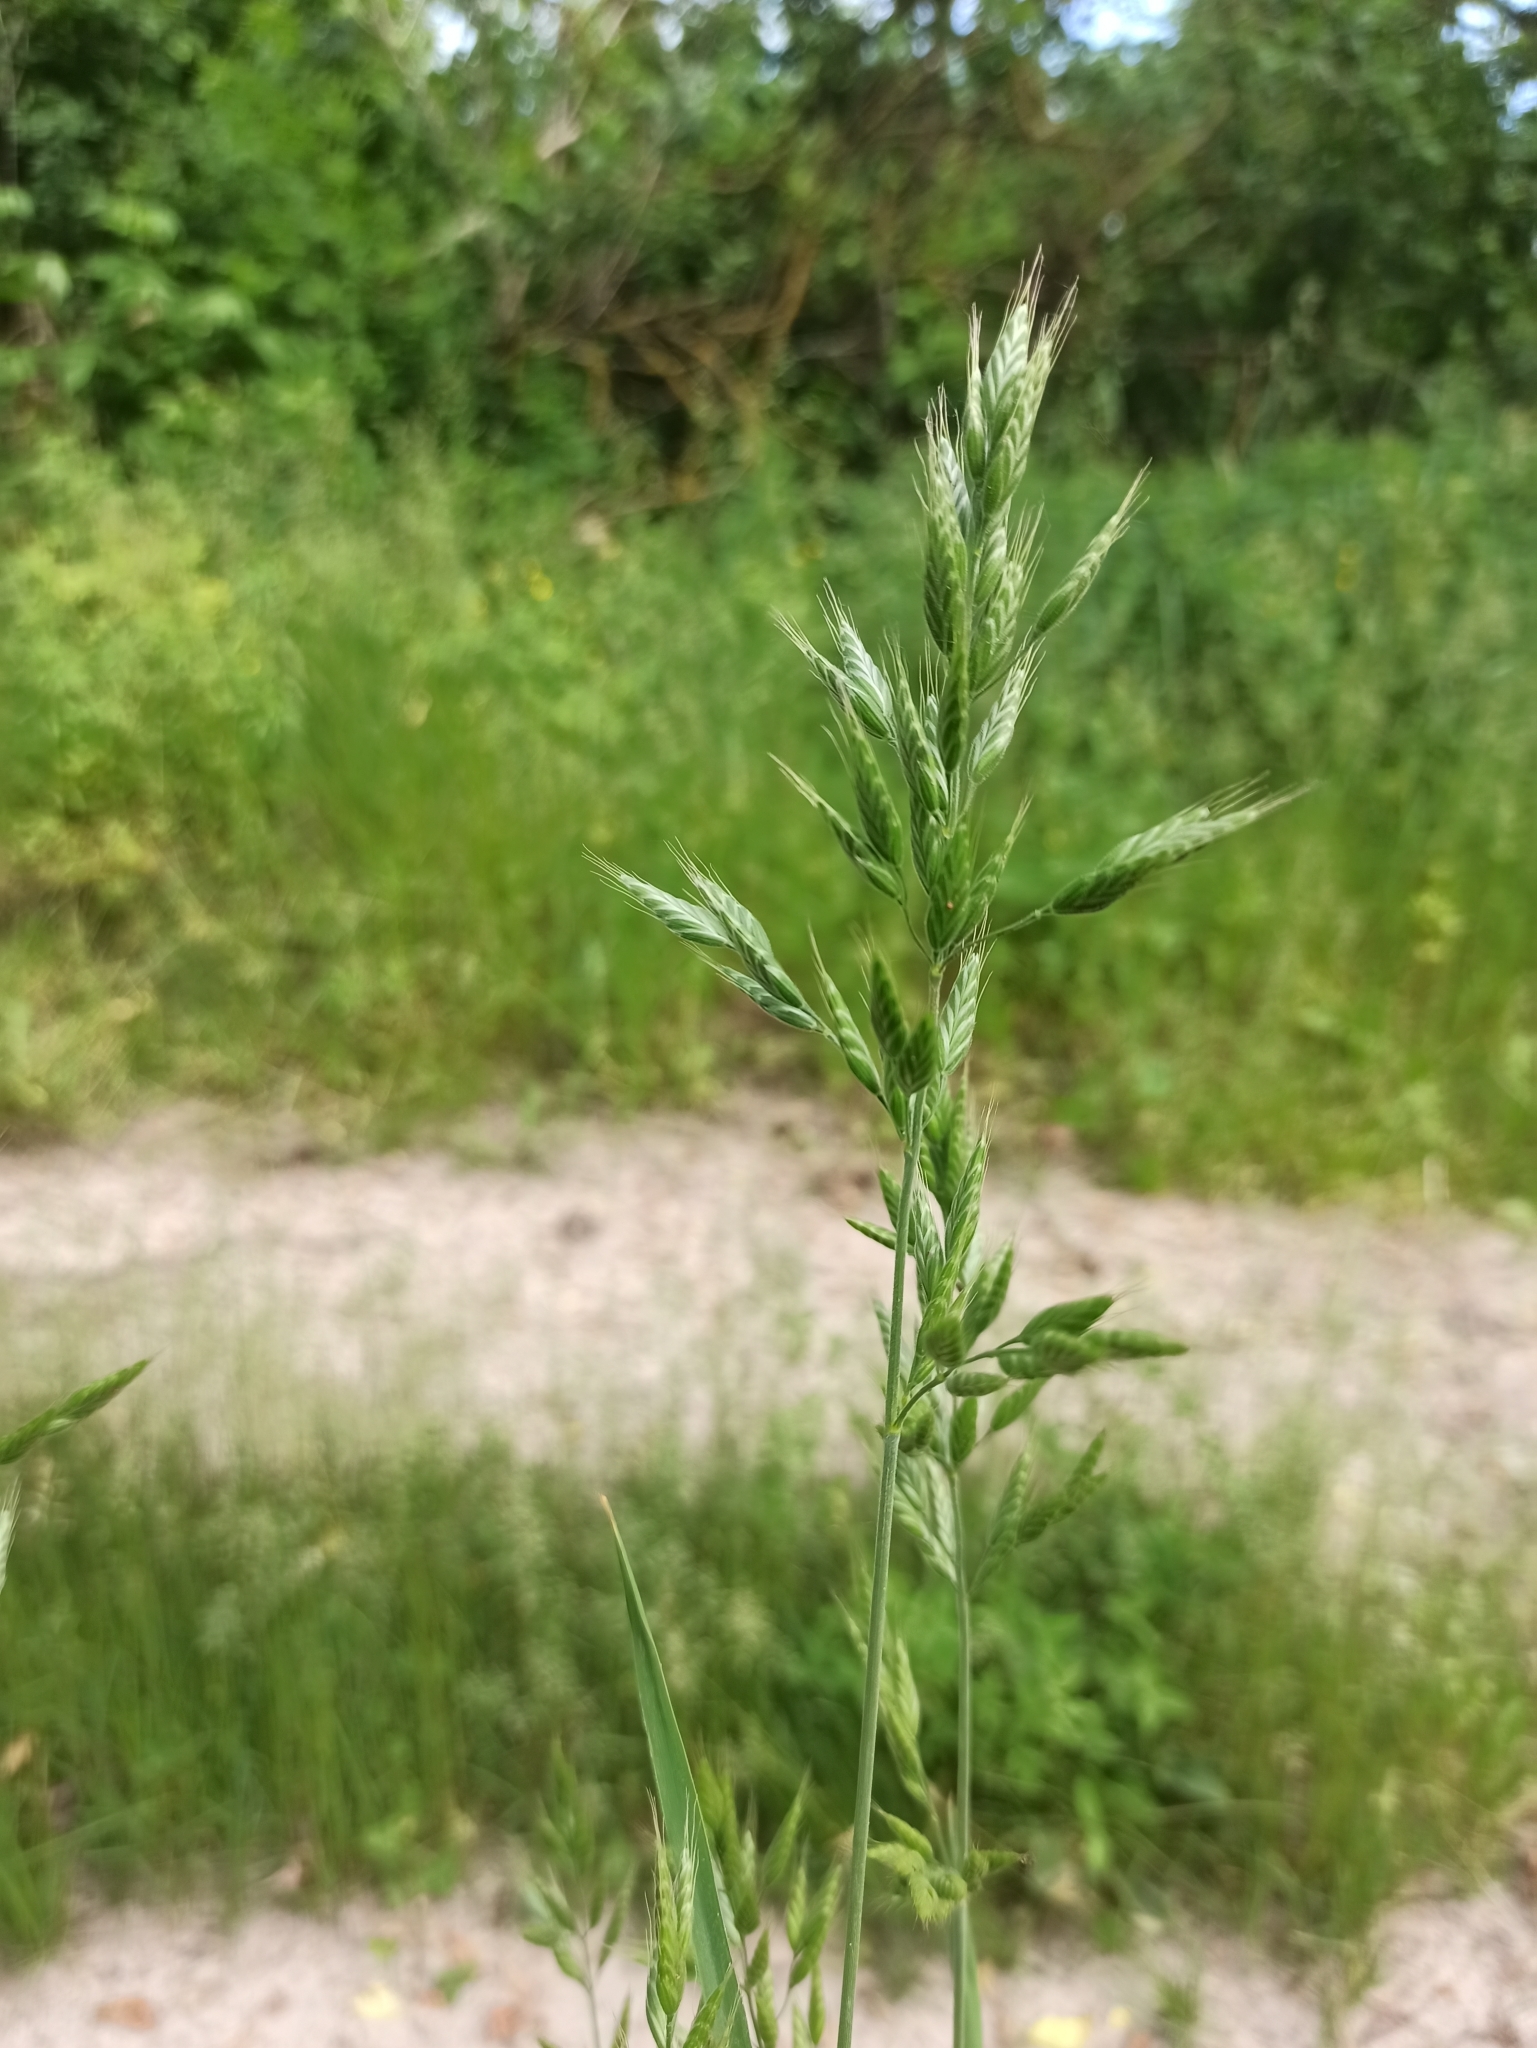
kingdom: Plantae
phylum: Tracheophyta
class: Liliopsida
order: Poales
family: Poaceae
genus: Bromus
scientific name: Bromus hordeaceus
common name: Soft brome
